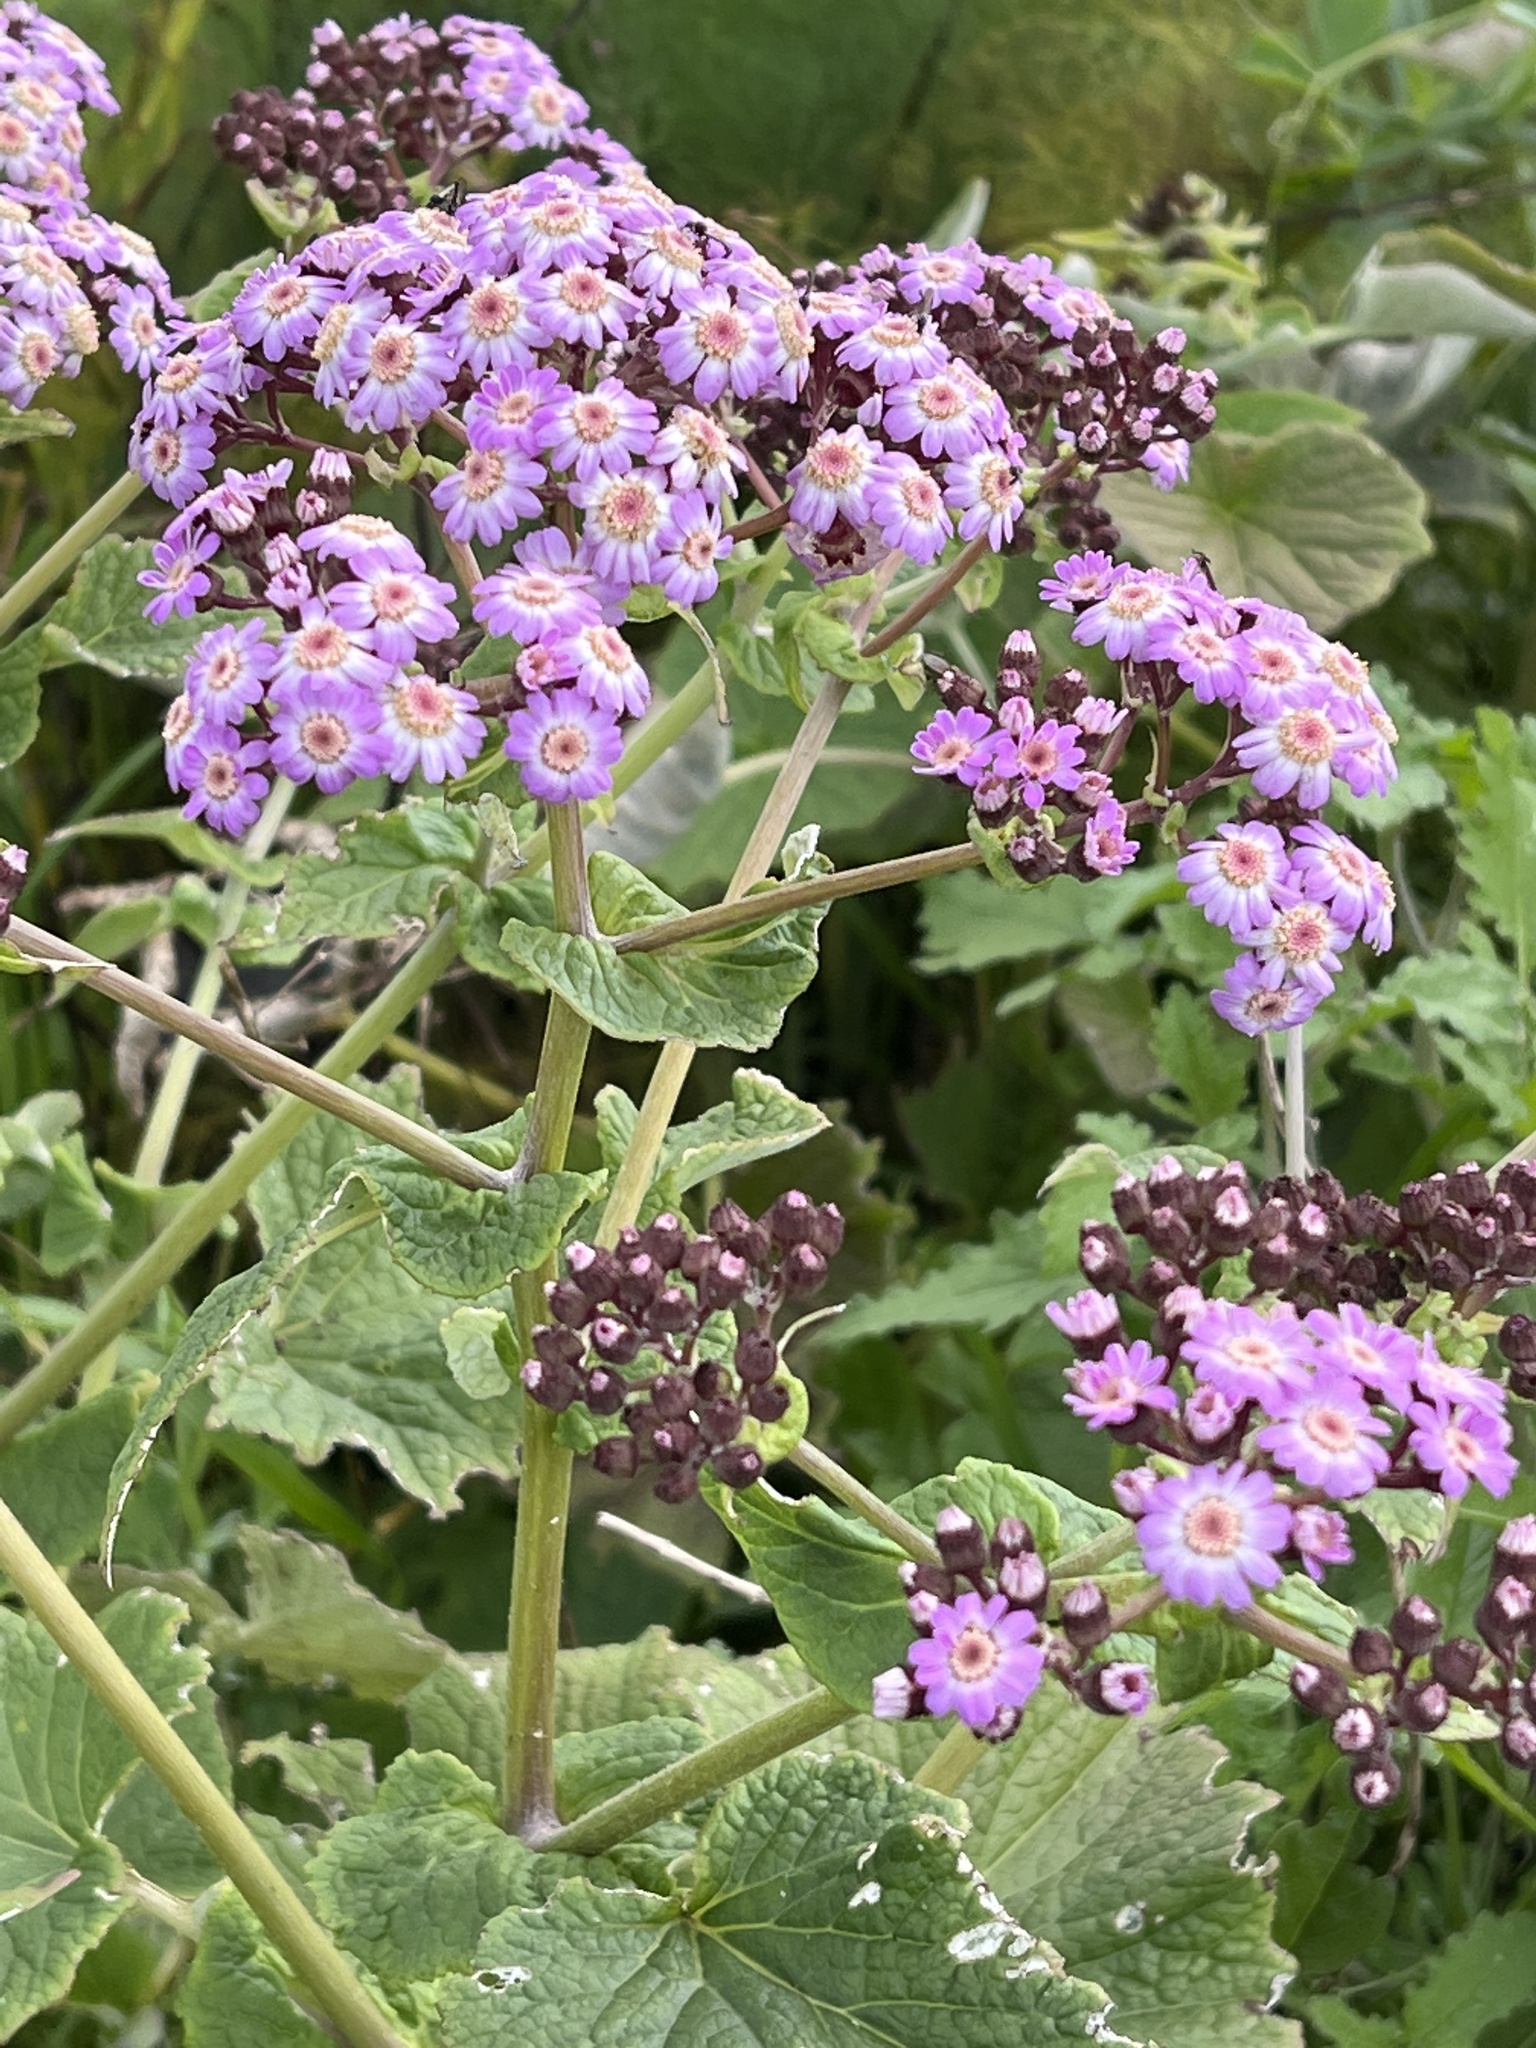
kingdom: Plantae
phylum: Tracheophyta
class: Magnoliopsida
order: Asterales
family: Asteraceae
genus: Pericallis
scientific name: Pericallis murrayi
